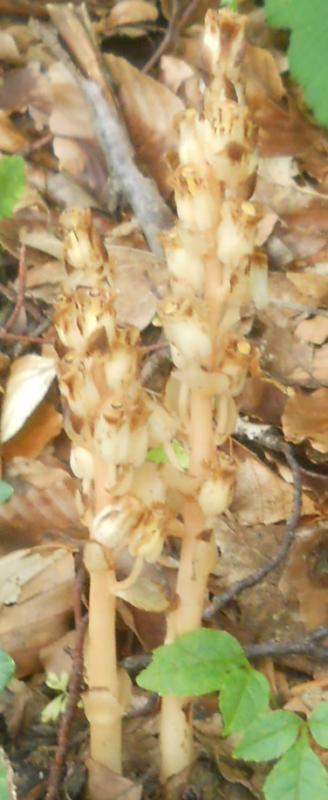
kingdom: Plantae
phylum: Tracheophyta
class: Magnoliopsida
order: Ericales
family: Ericaceae
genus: Hypopitys
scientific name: Hypopitys monotropa
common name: Yellow bird's-nest
